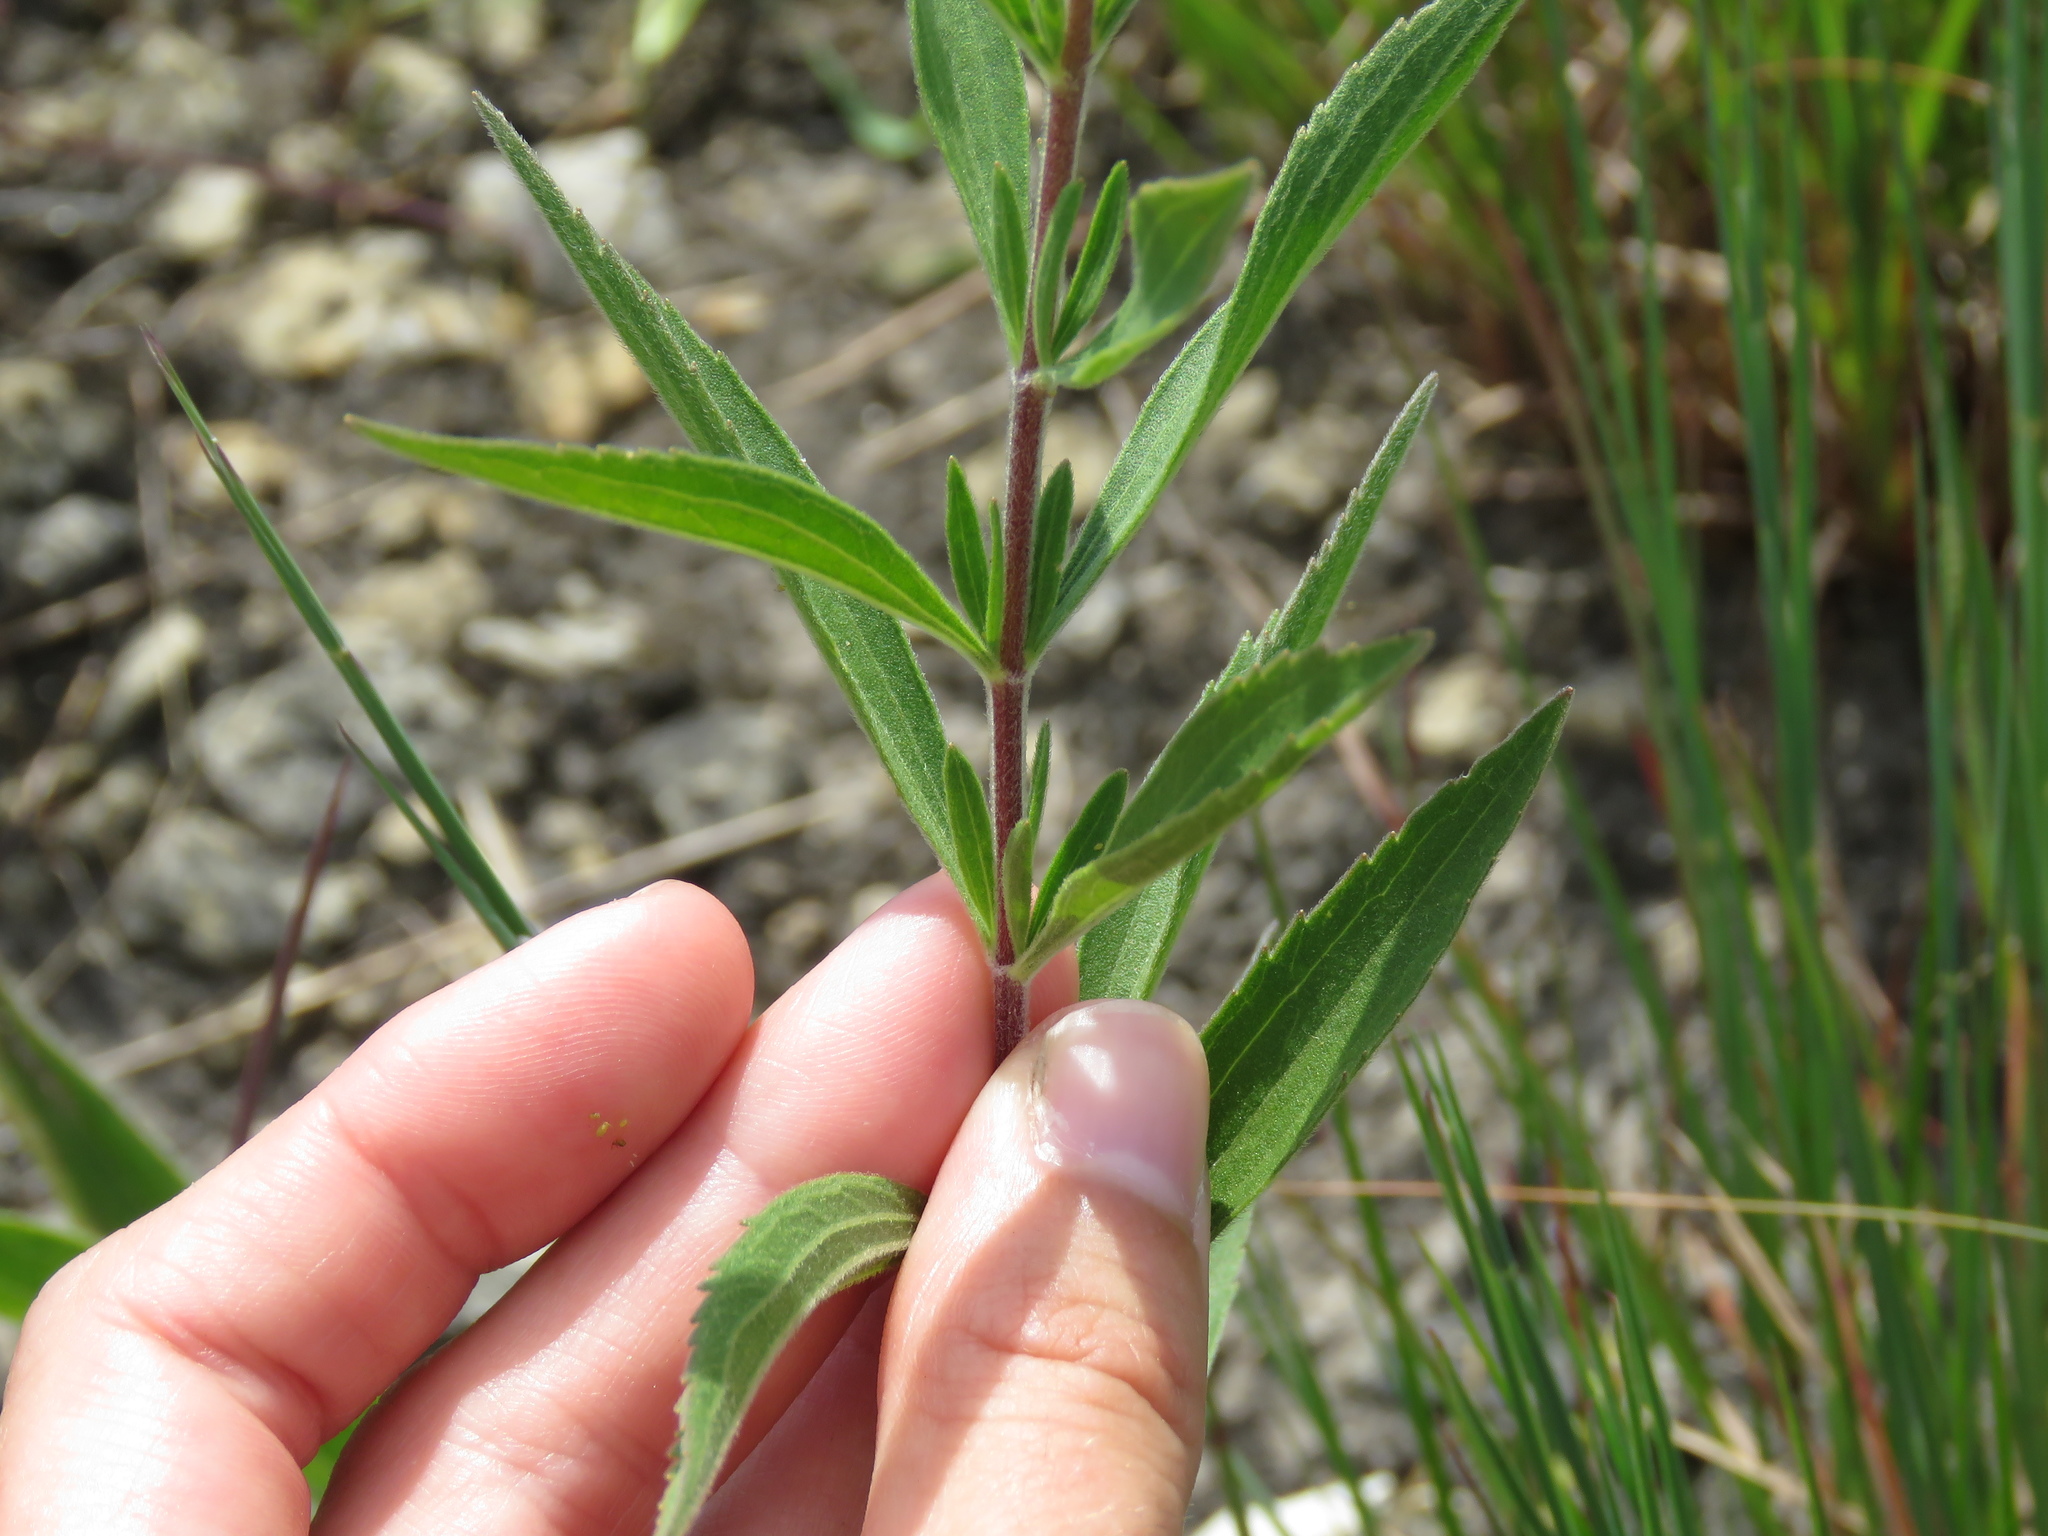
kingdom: Plantae
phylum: Tracheophyta
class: Magnoliopsida
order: Asterales
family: Asteraceae
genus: Eupatorium
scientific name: Eupatorium altissimum
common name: Tall thoroughwort
